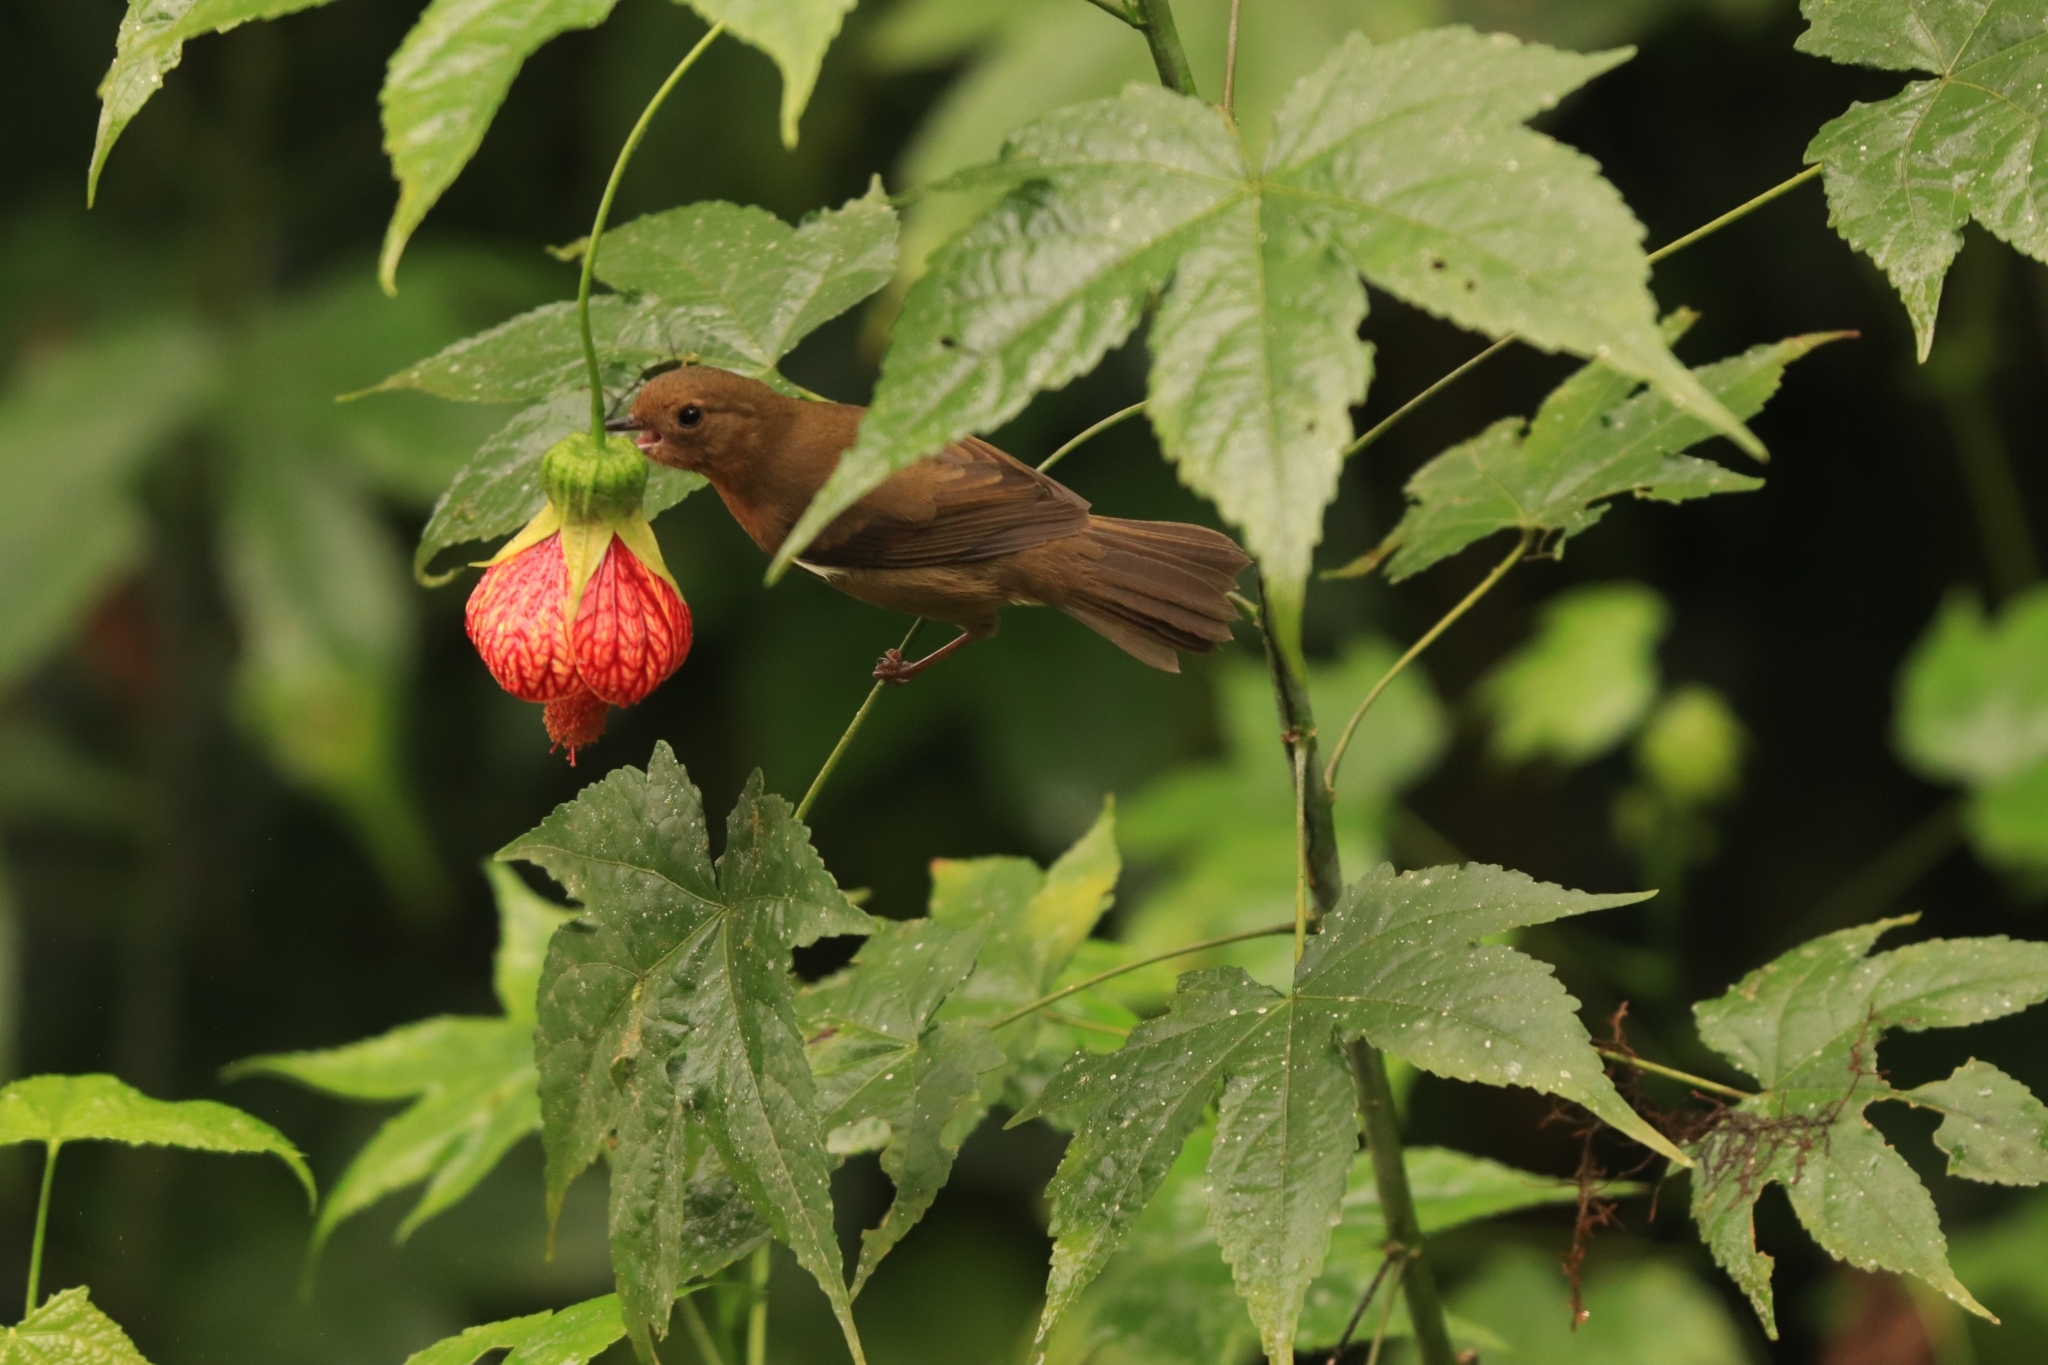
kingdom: Animalia
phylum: Chordata
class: Aves
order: Passeriformes
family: Thraupidae
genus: Diglossa
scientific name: Diglossa albilatera
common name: White-sided flowerpiercer
